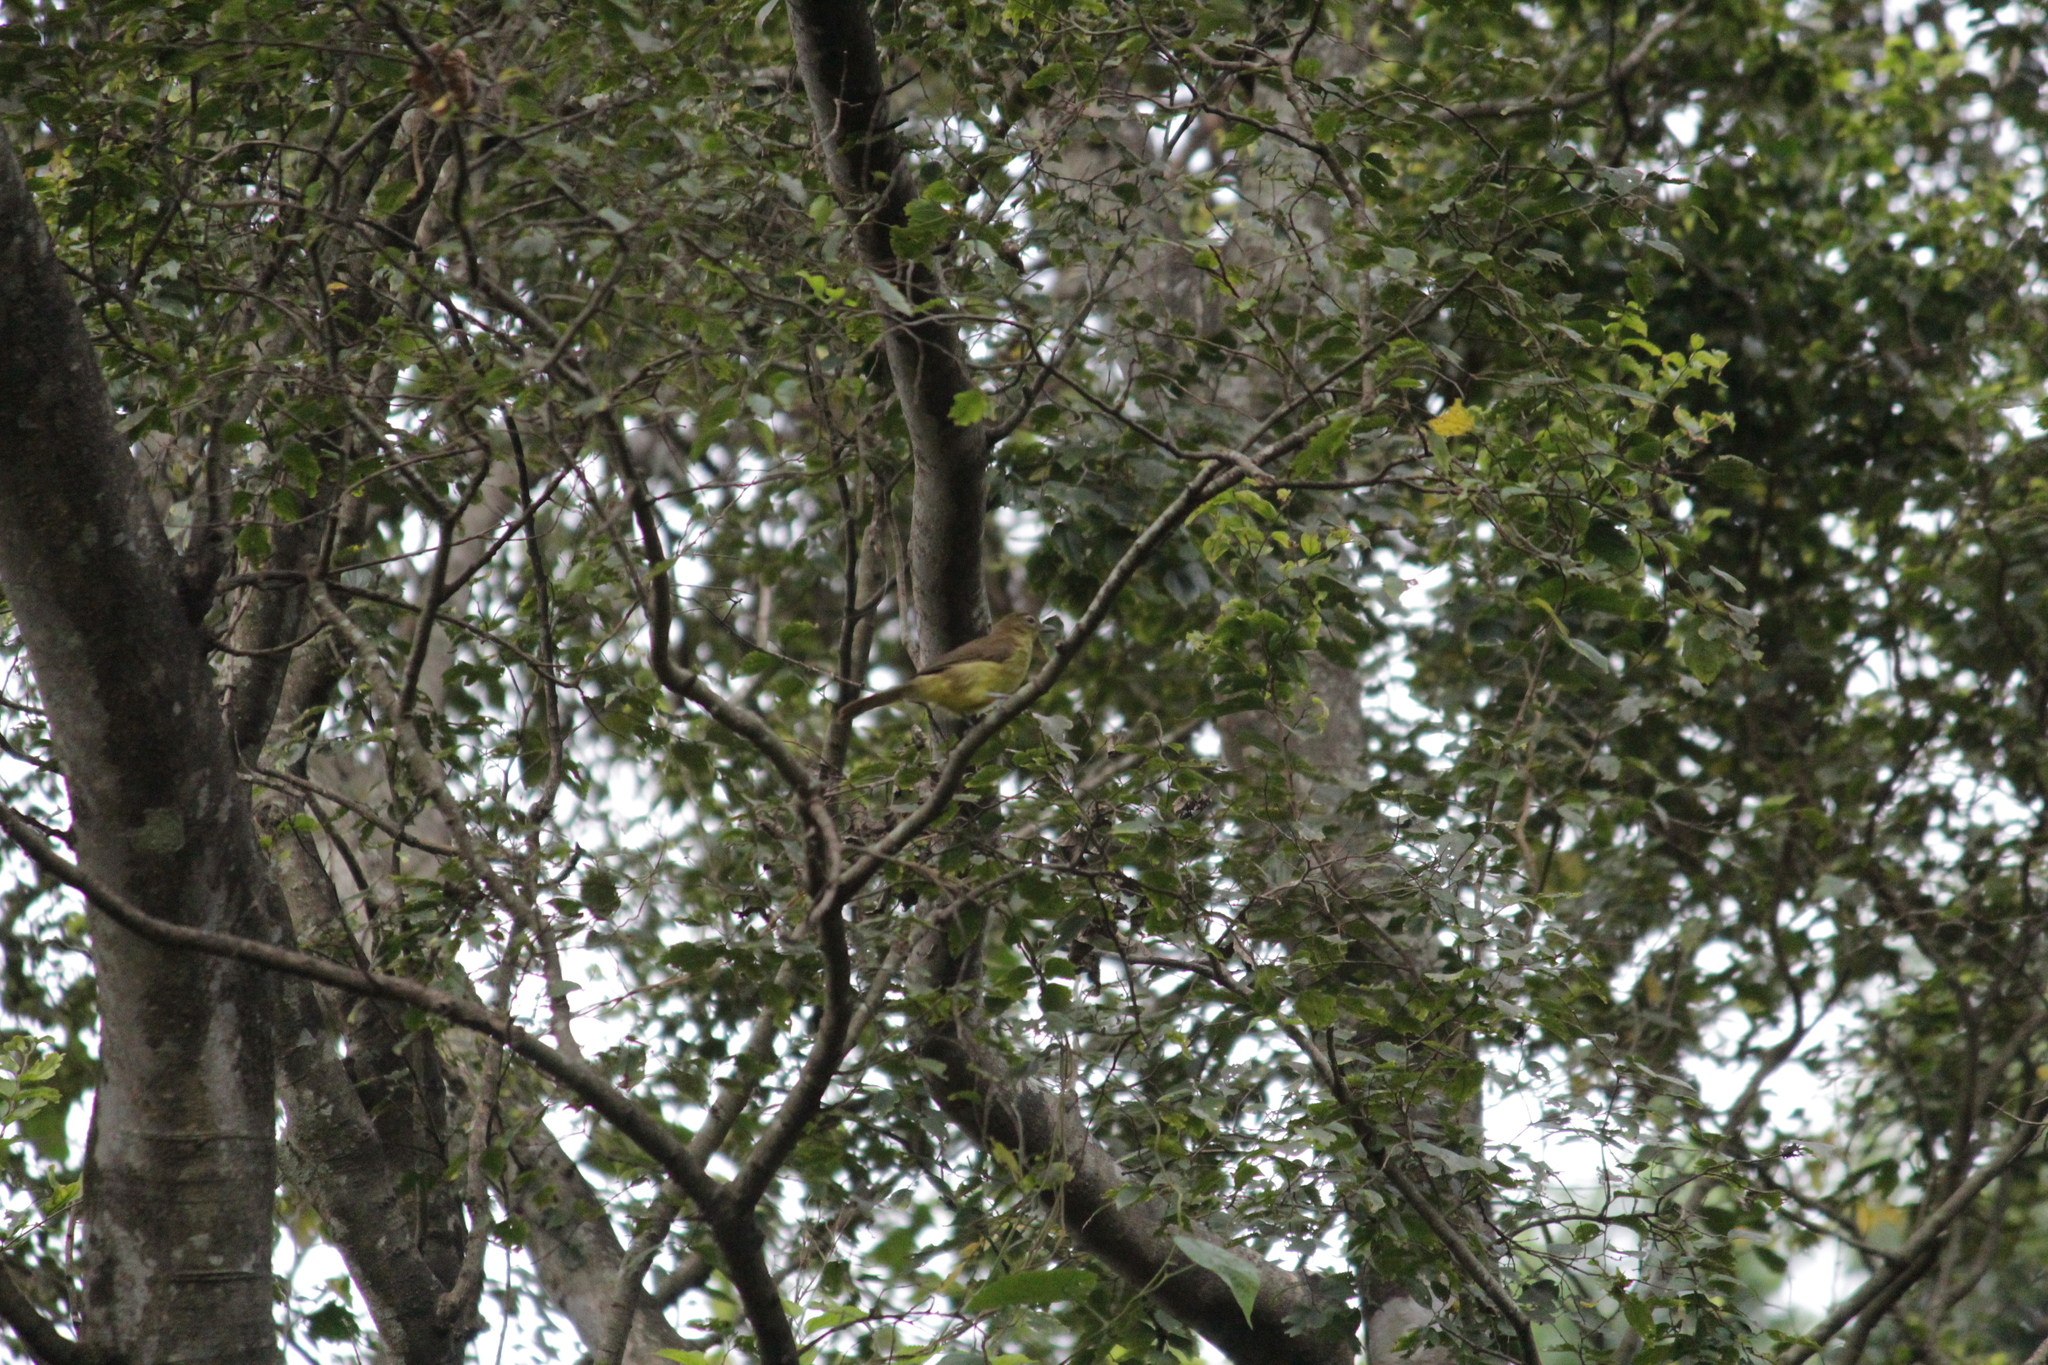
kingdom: Animalia
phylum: Chordata
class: Aves
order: Passeriformes
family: Pycnonotidae
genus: Chlorocichla
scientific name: Chlorocichla flaviventris
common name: Yellow-bellied greenbul
